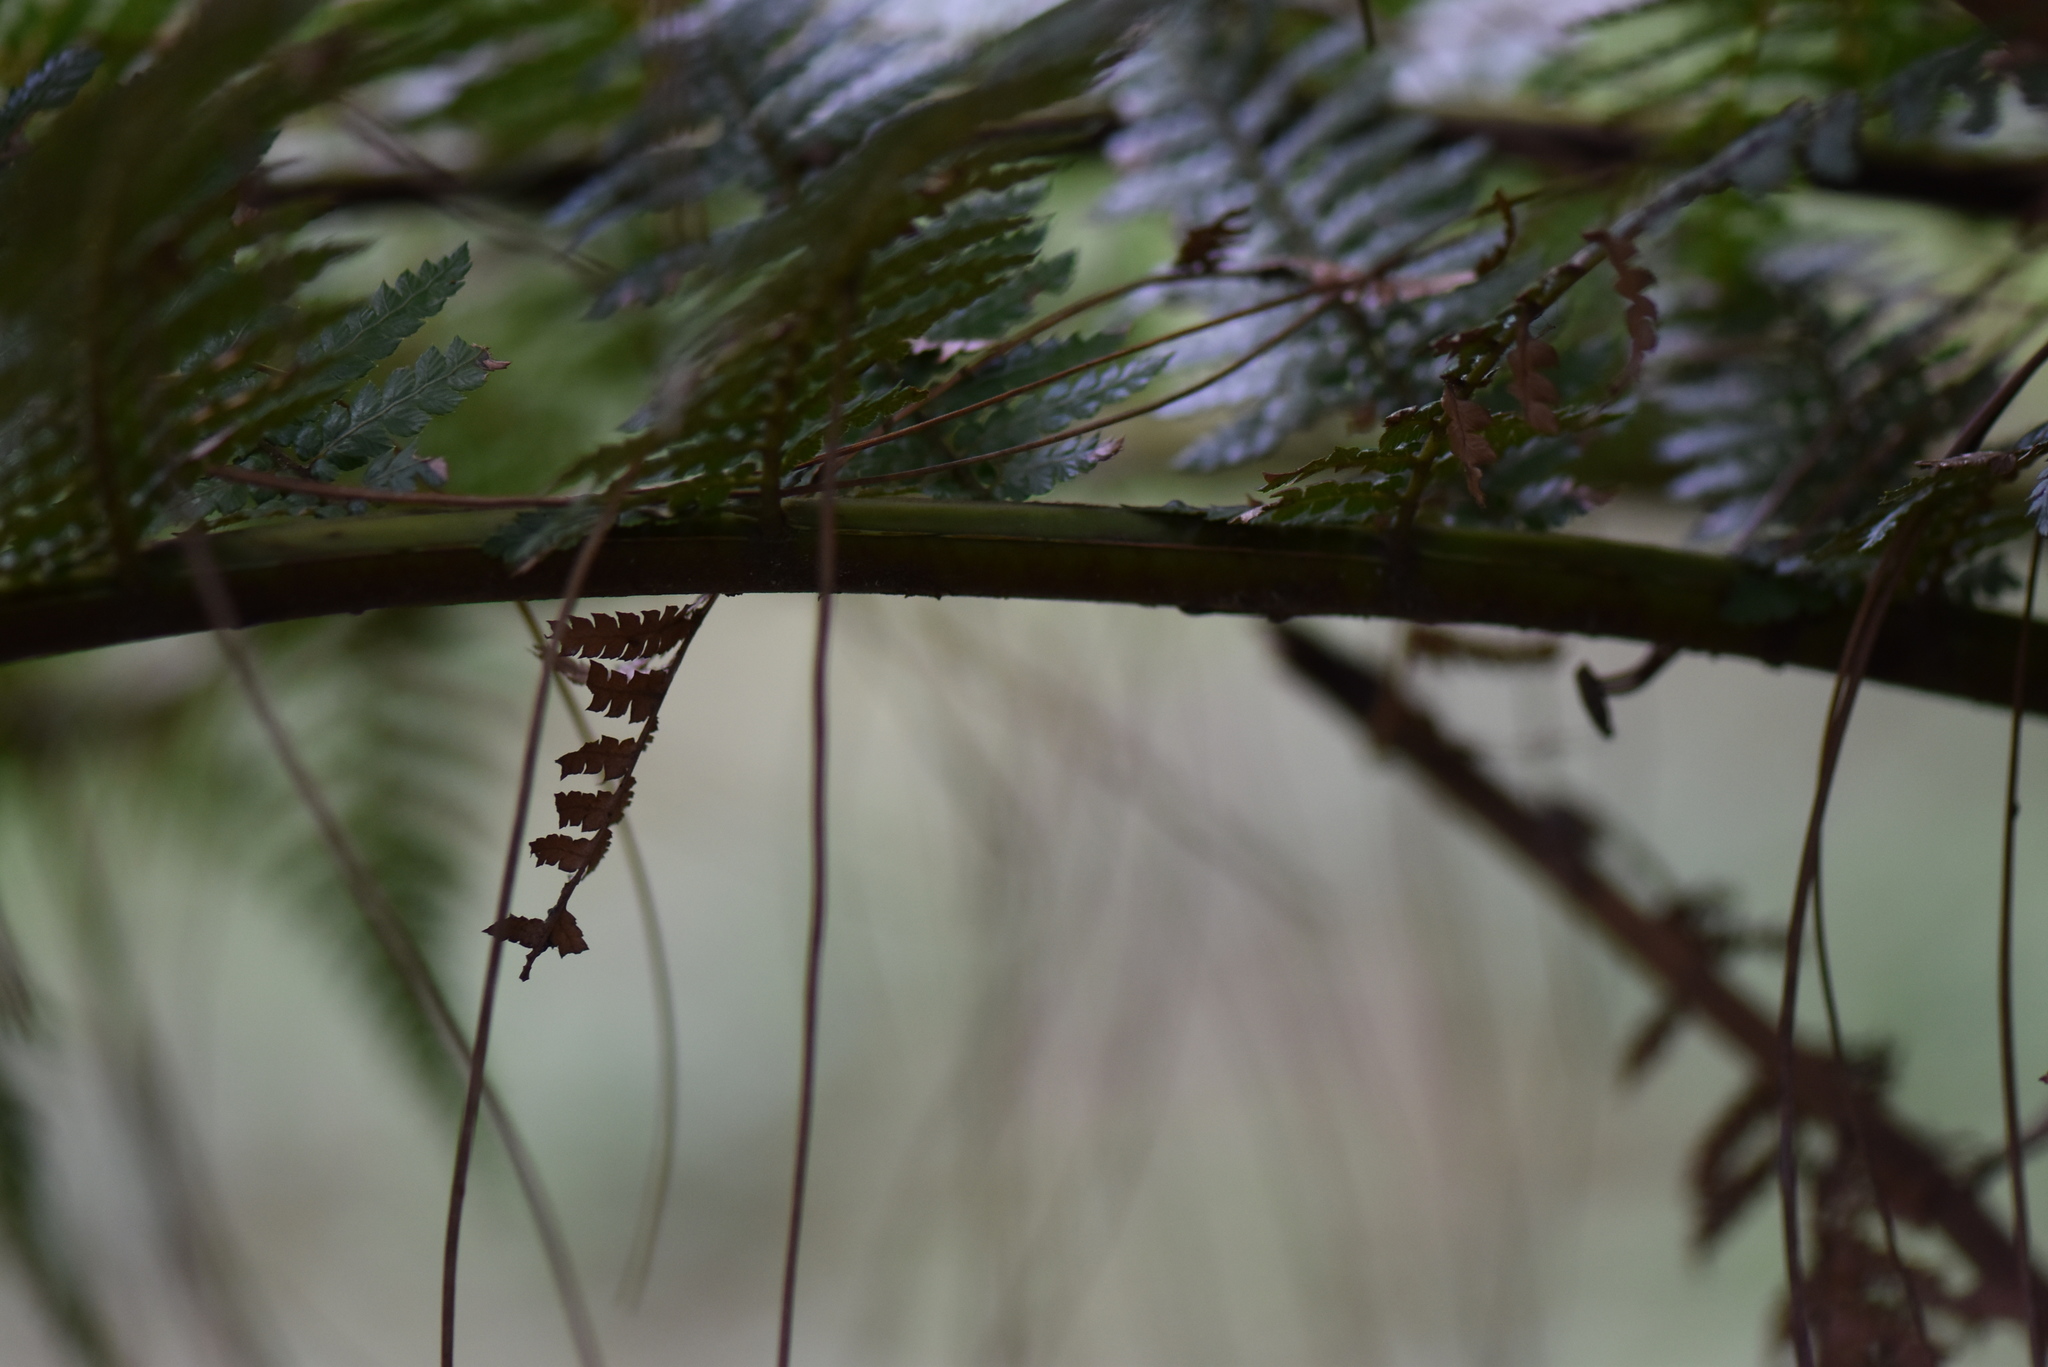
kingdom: Plantae
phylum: Tracheophyta
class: Polypodiopsida
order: Cyatheales
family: Dicksoniaceae
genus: Dicksonia
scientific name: Dicksonia sellowiana
